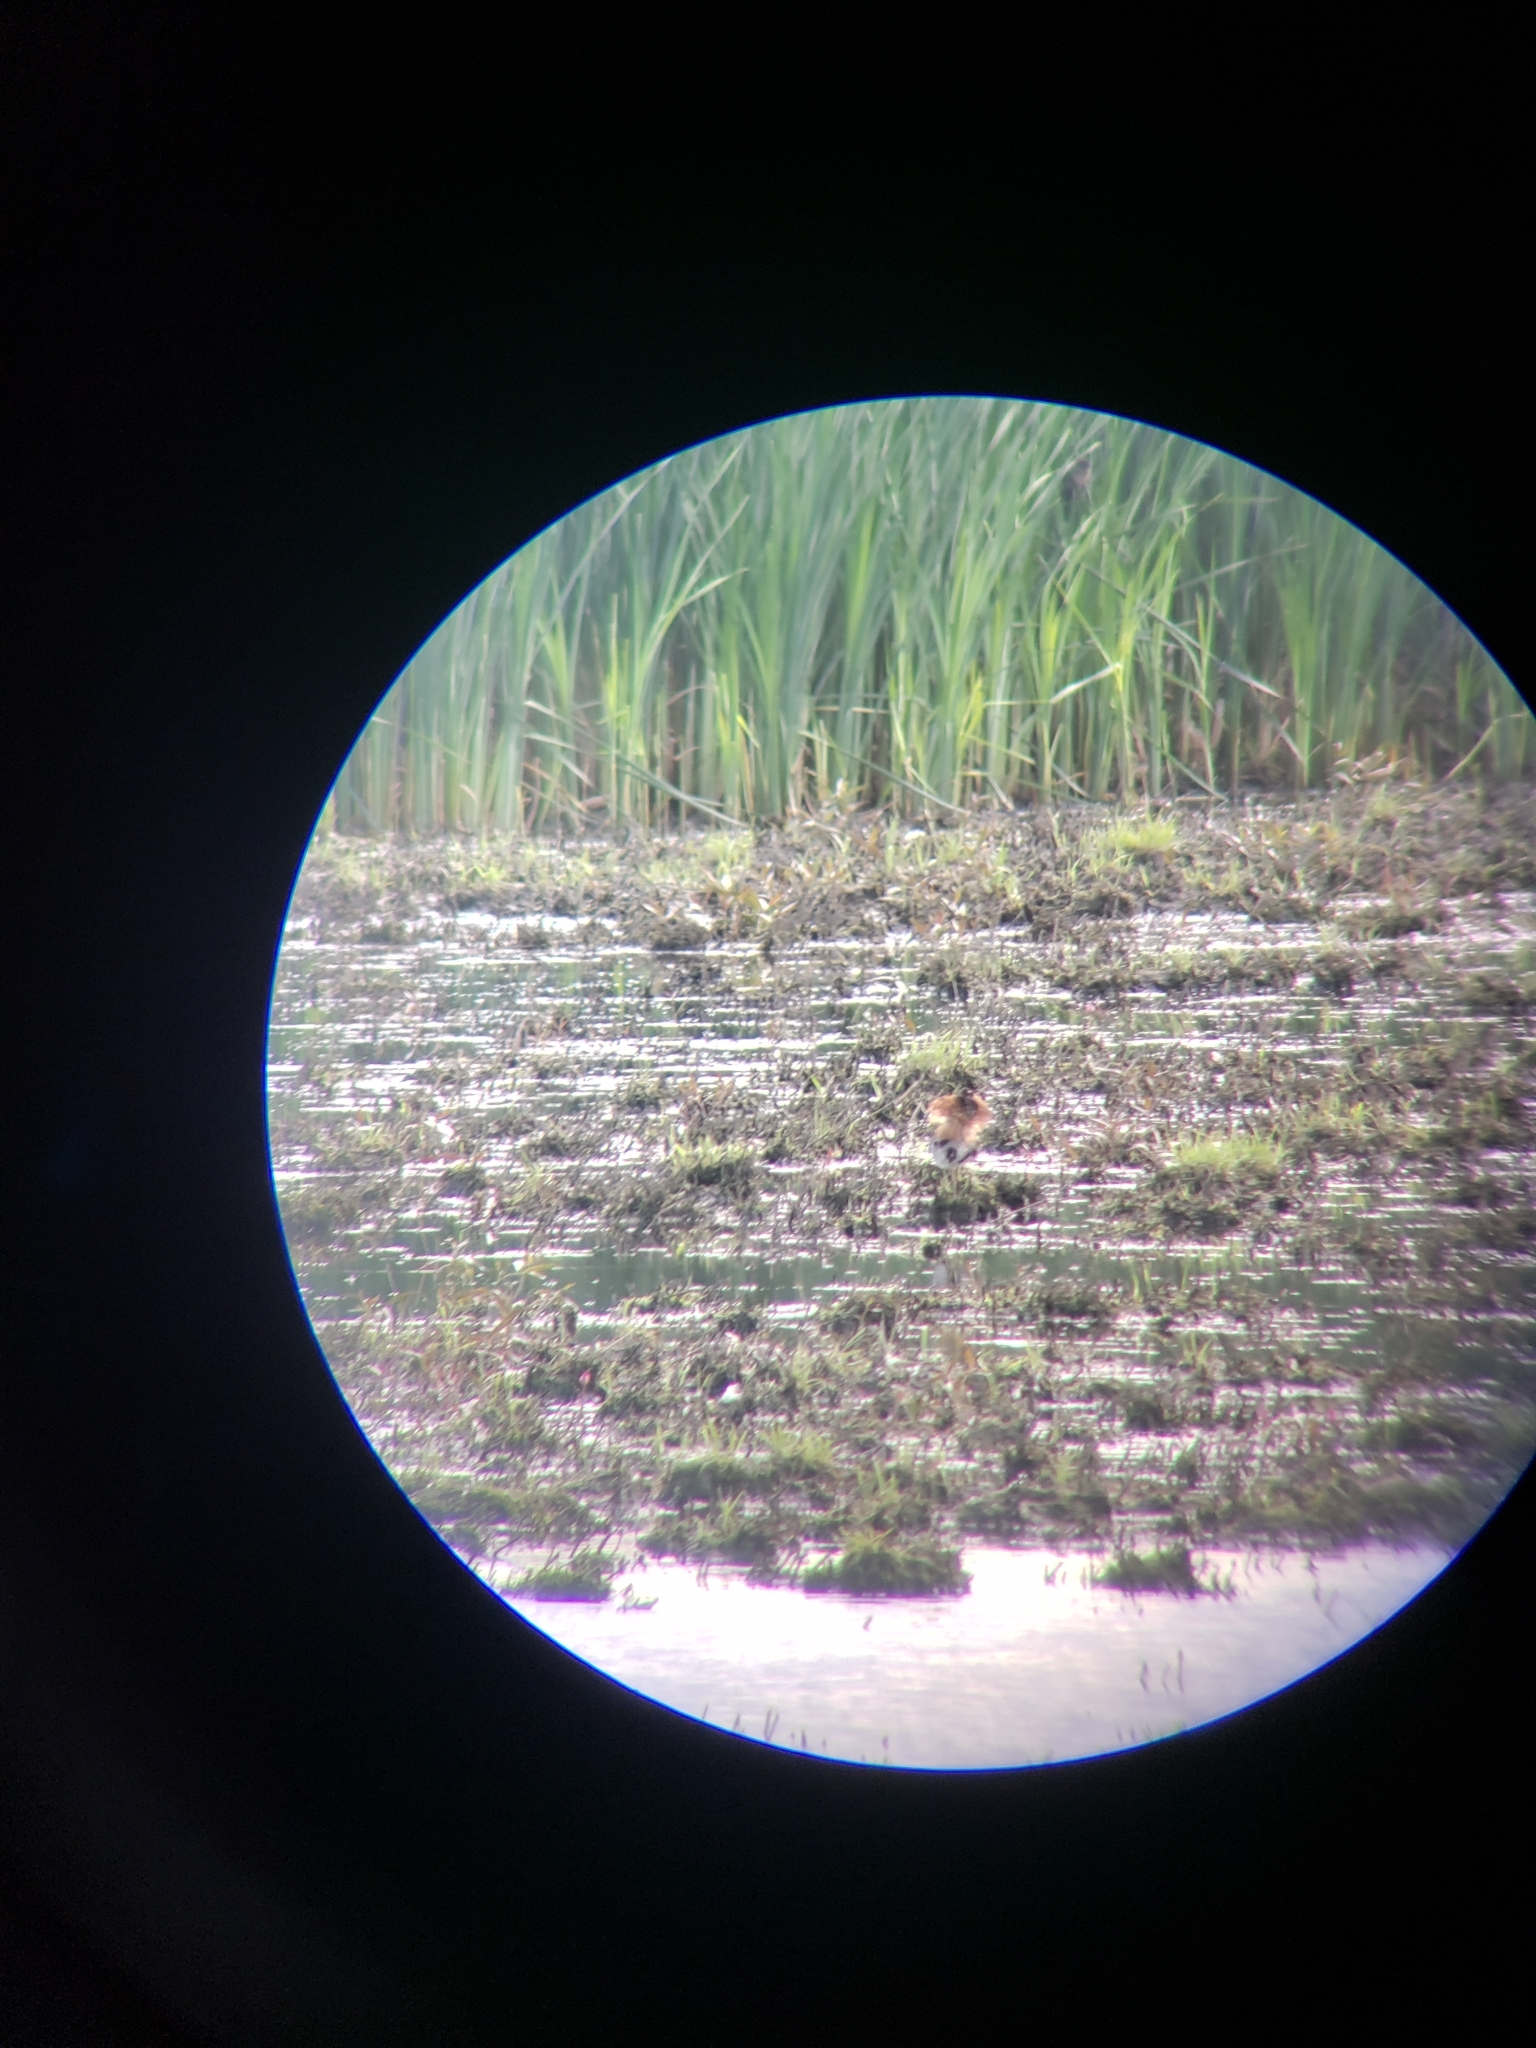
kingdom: Animalia
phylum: Chordata
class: Aves
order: Charadriiformes
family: Scolopacidae
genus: Calidris
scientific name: Calidris pugnax
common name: Ruff
